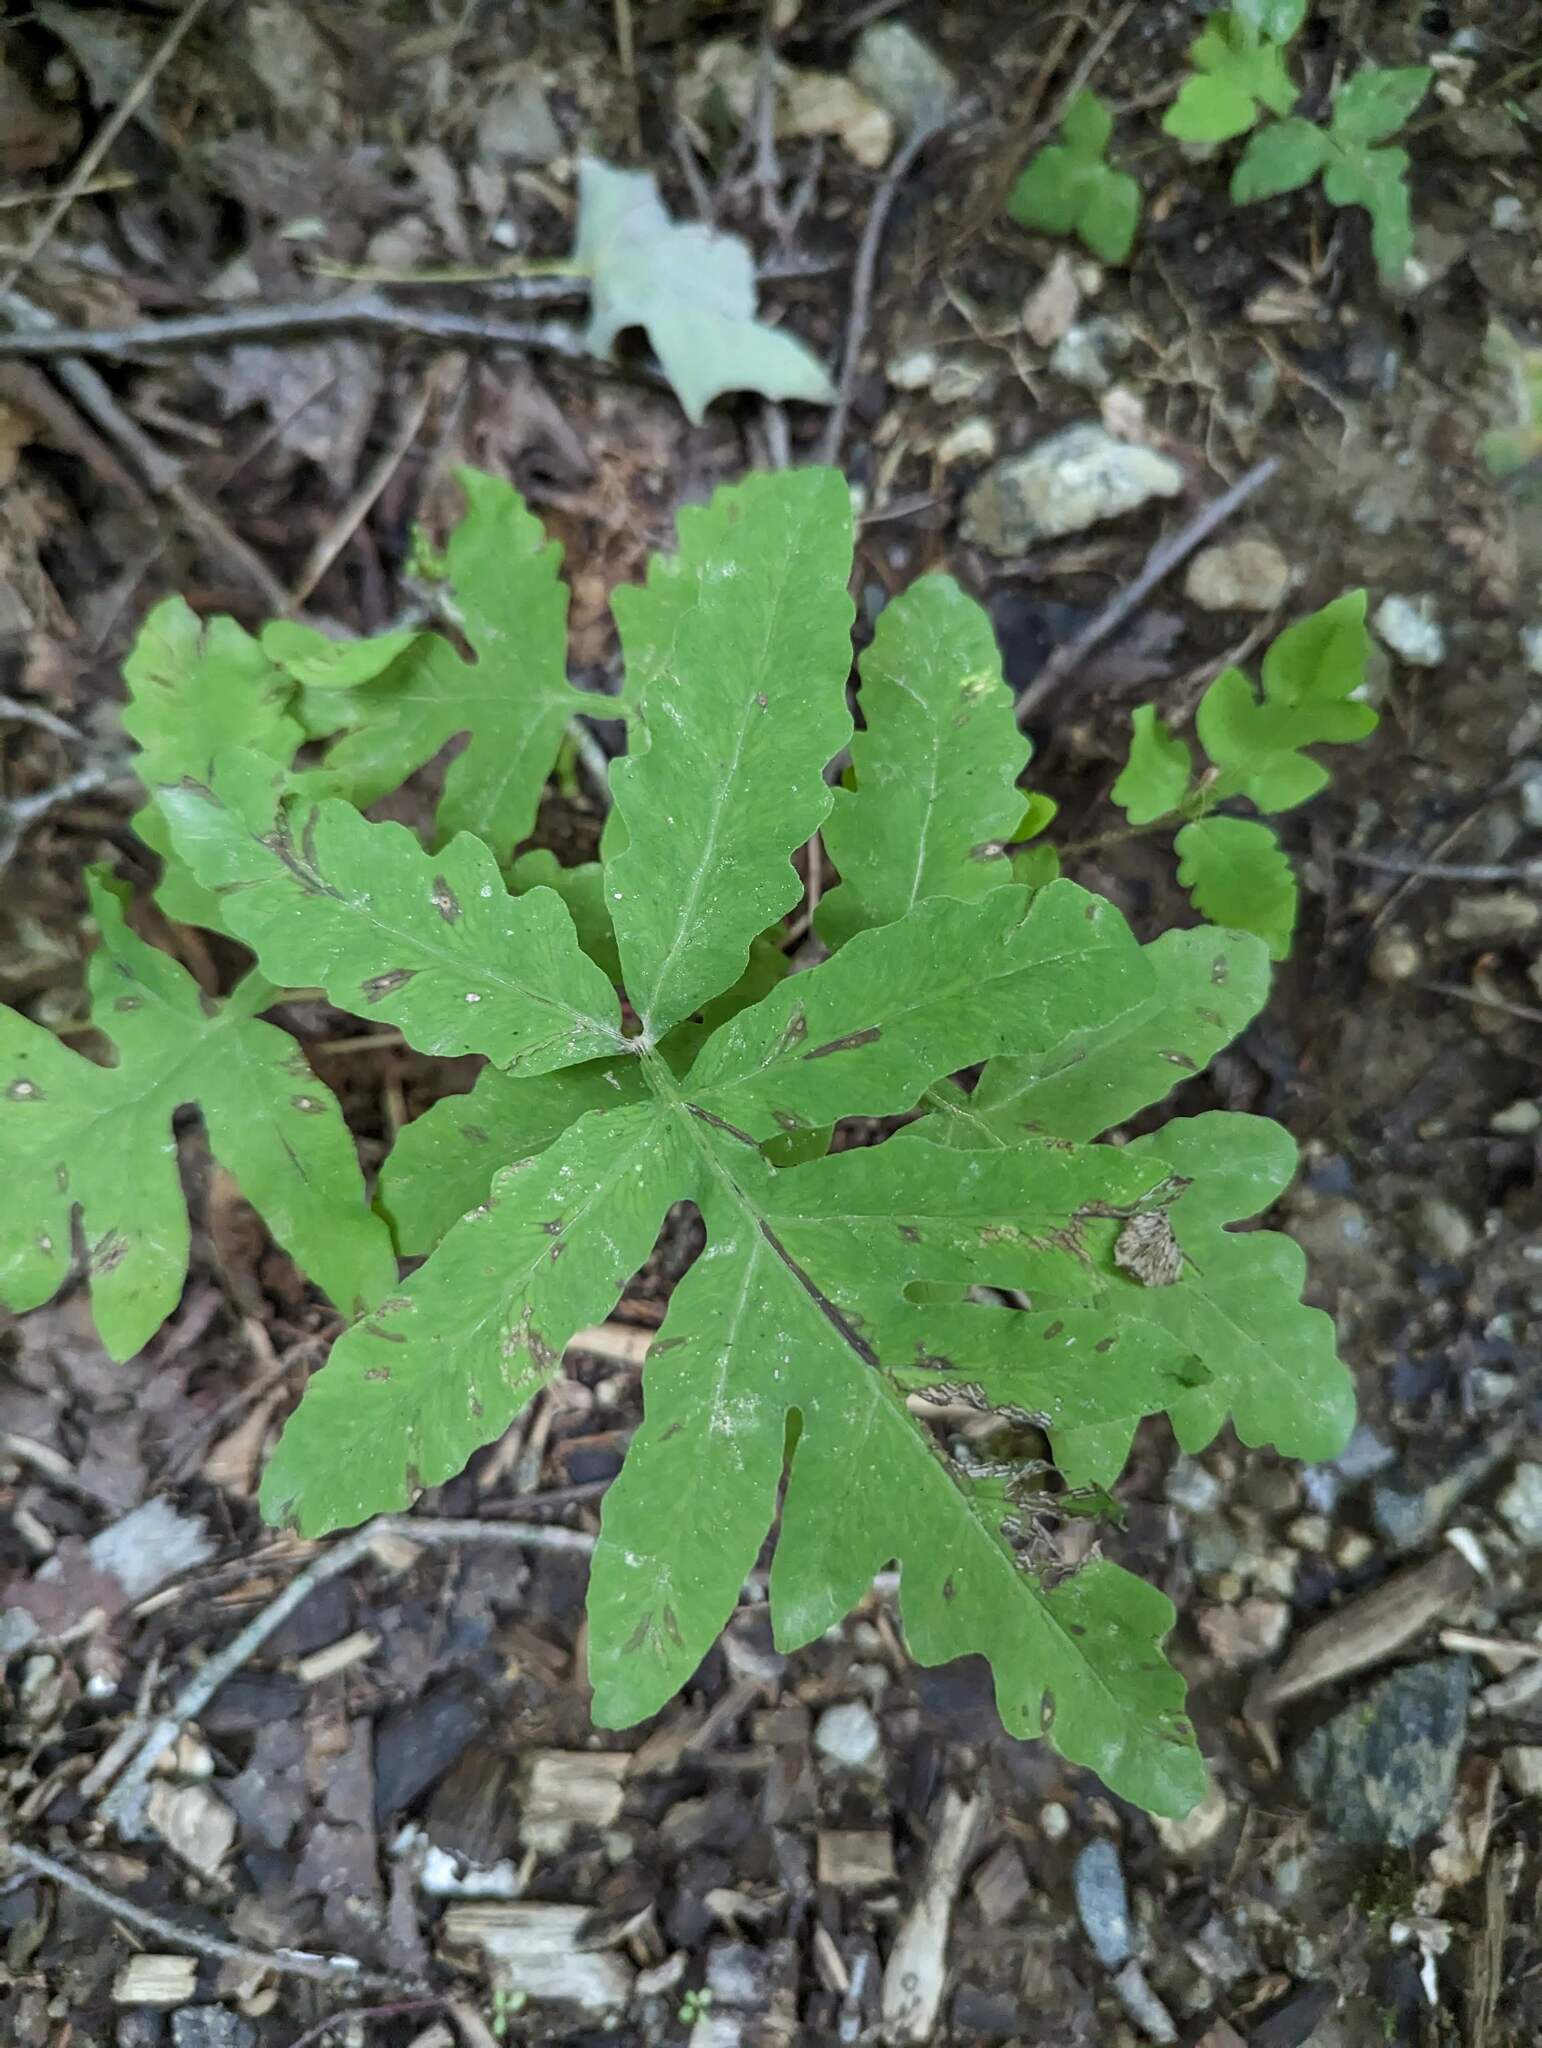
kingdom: Plantae
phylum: Tracheophyta
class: Polypodiopsida
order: Polypodiales
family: Onocleaceae
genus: Onoclea
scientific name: Onoclea sensibilis
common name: Sensitive fern
